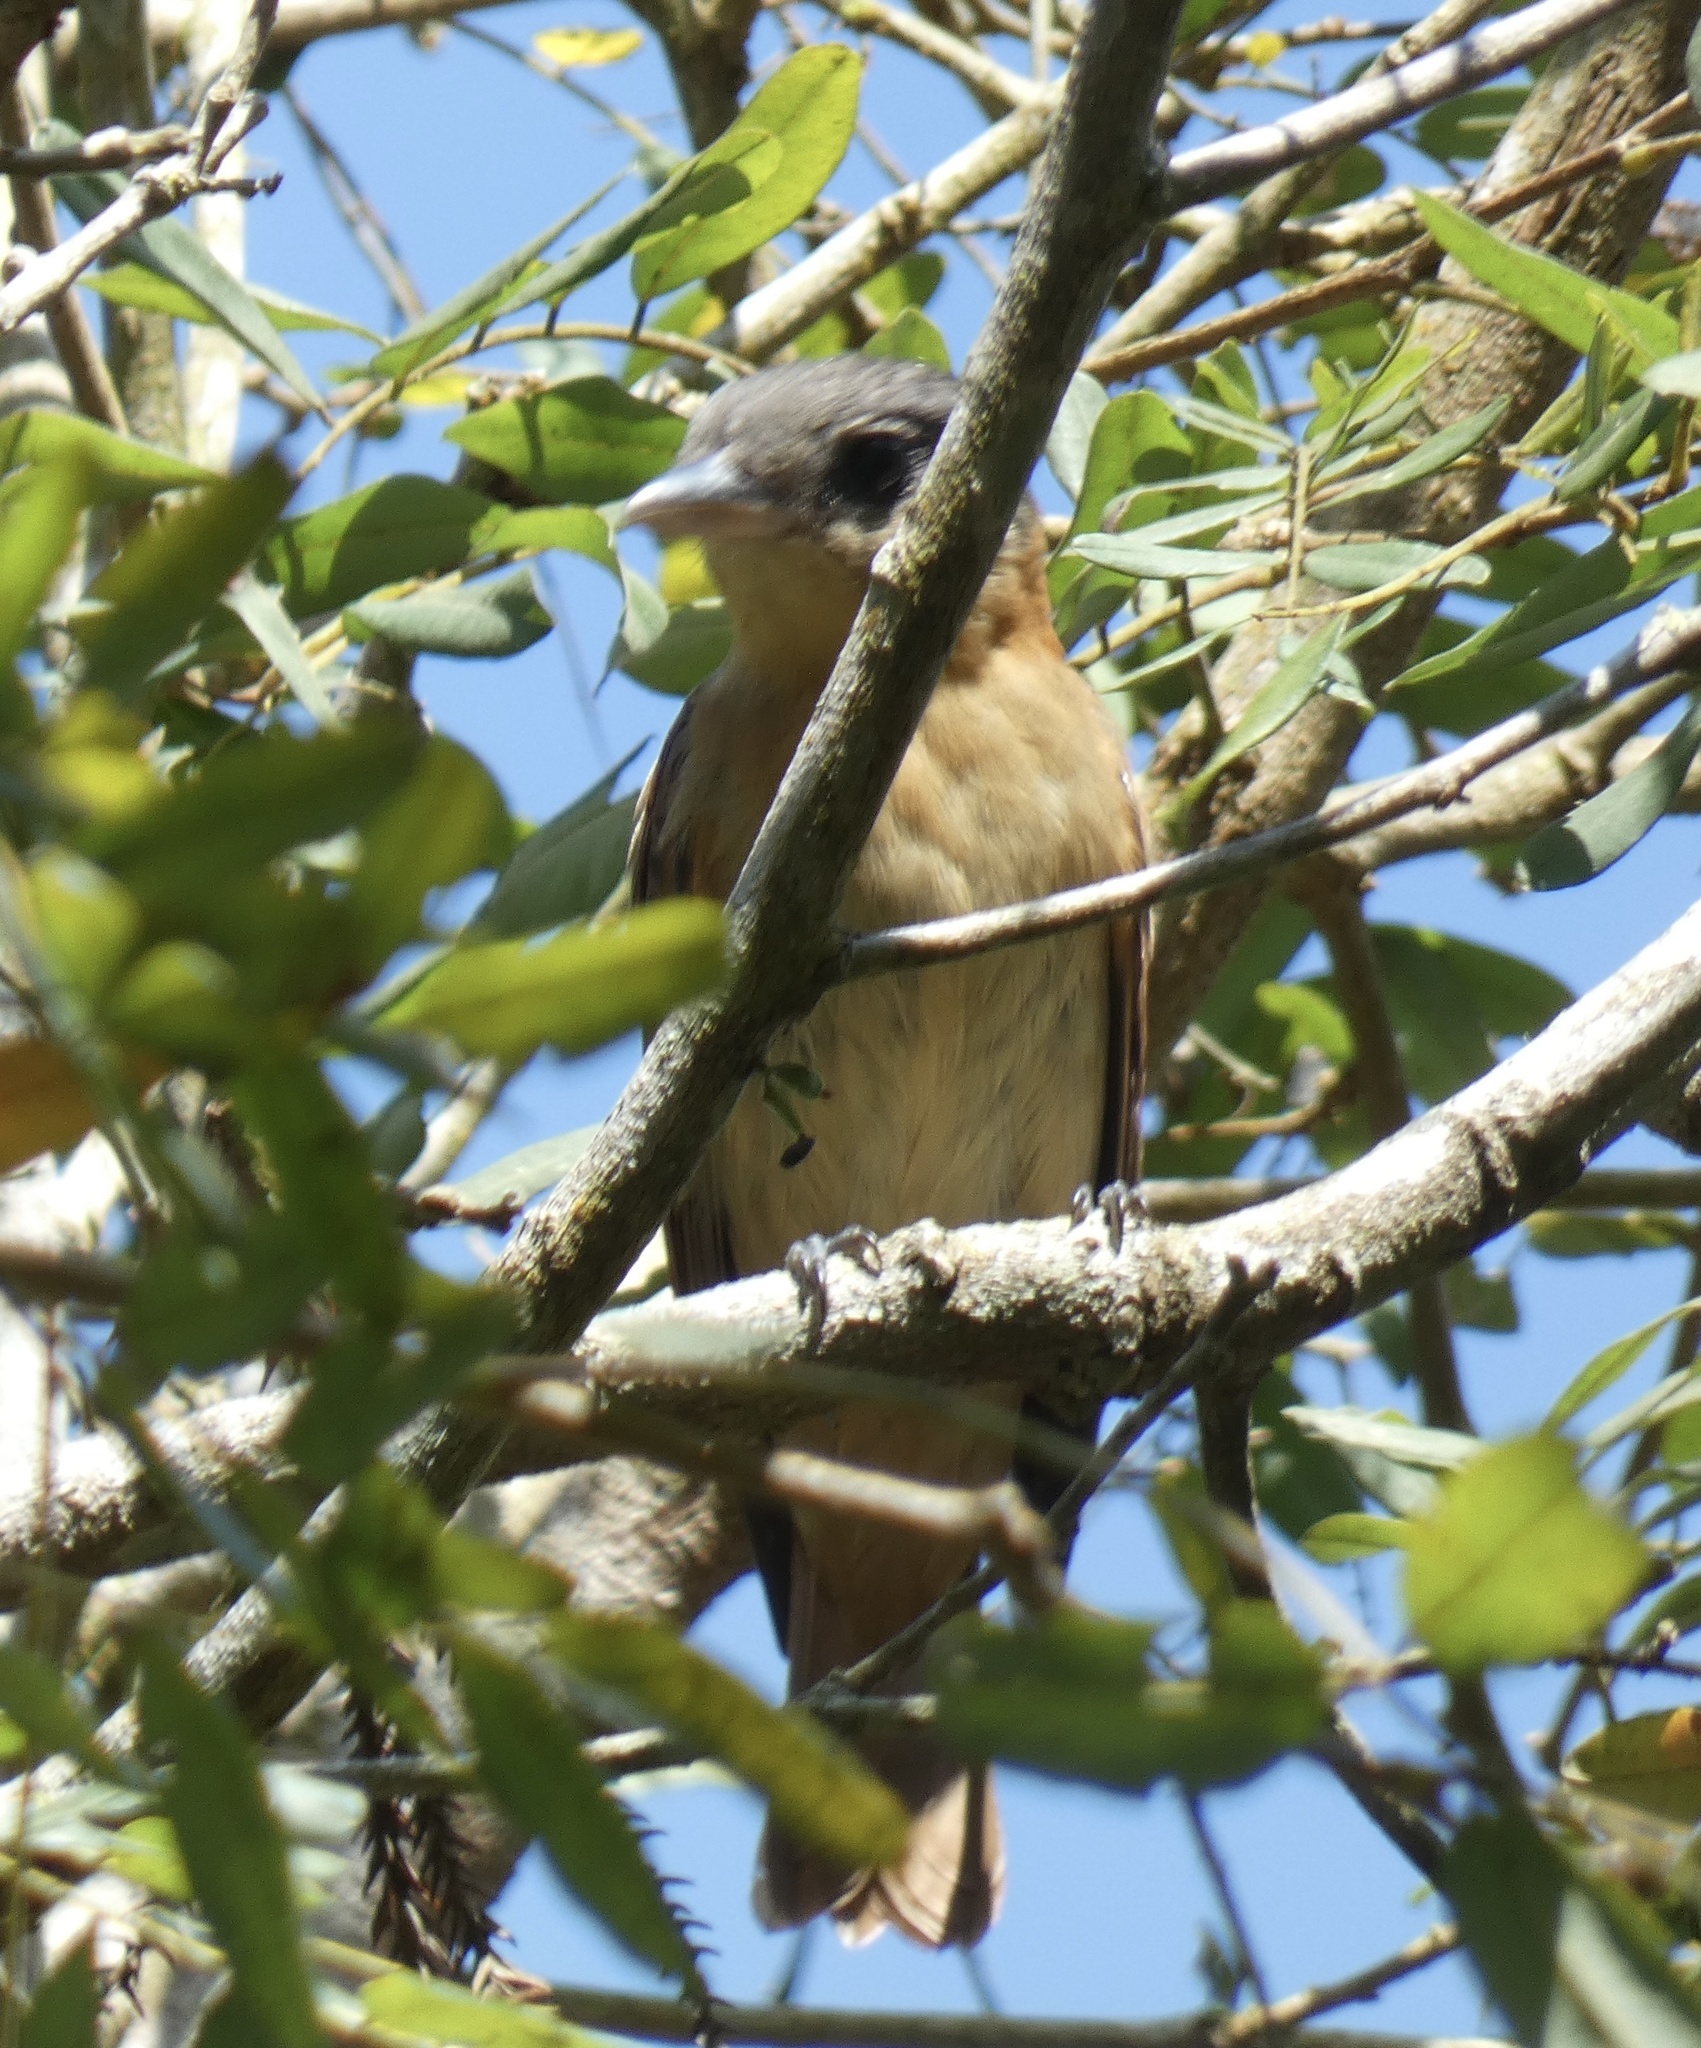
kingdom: Animalia
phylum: Chordata
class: Aves
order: Passeriformes
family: Cotingidae
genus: Pachyramphus
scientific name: Pachyramphus validus
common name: Crested becard
